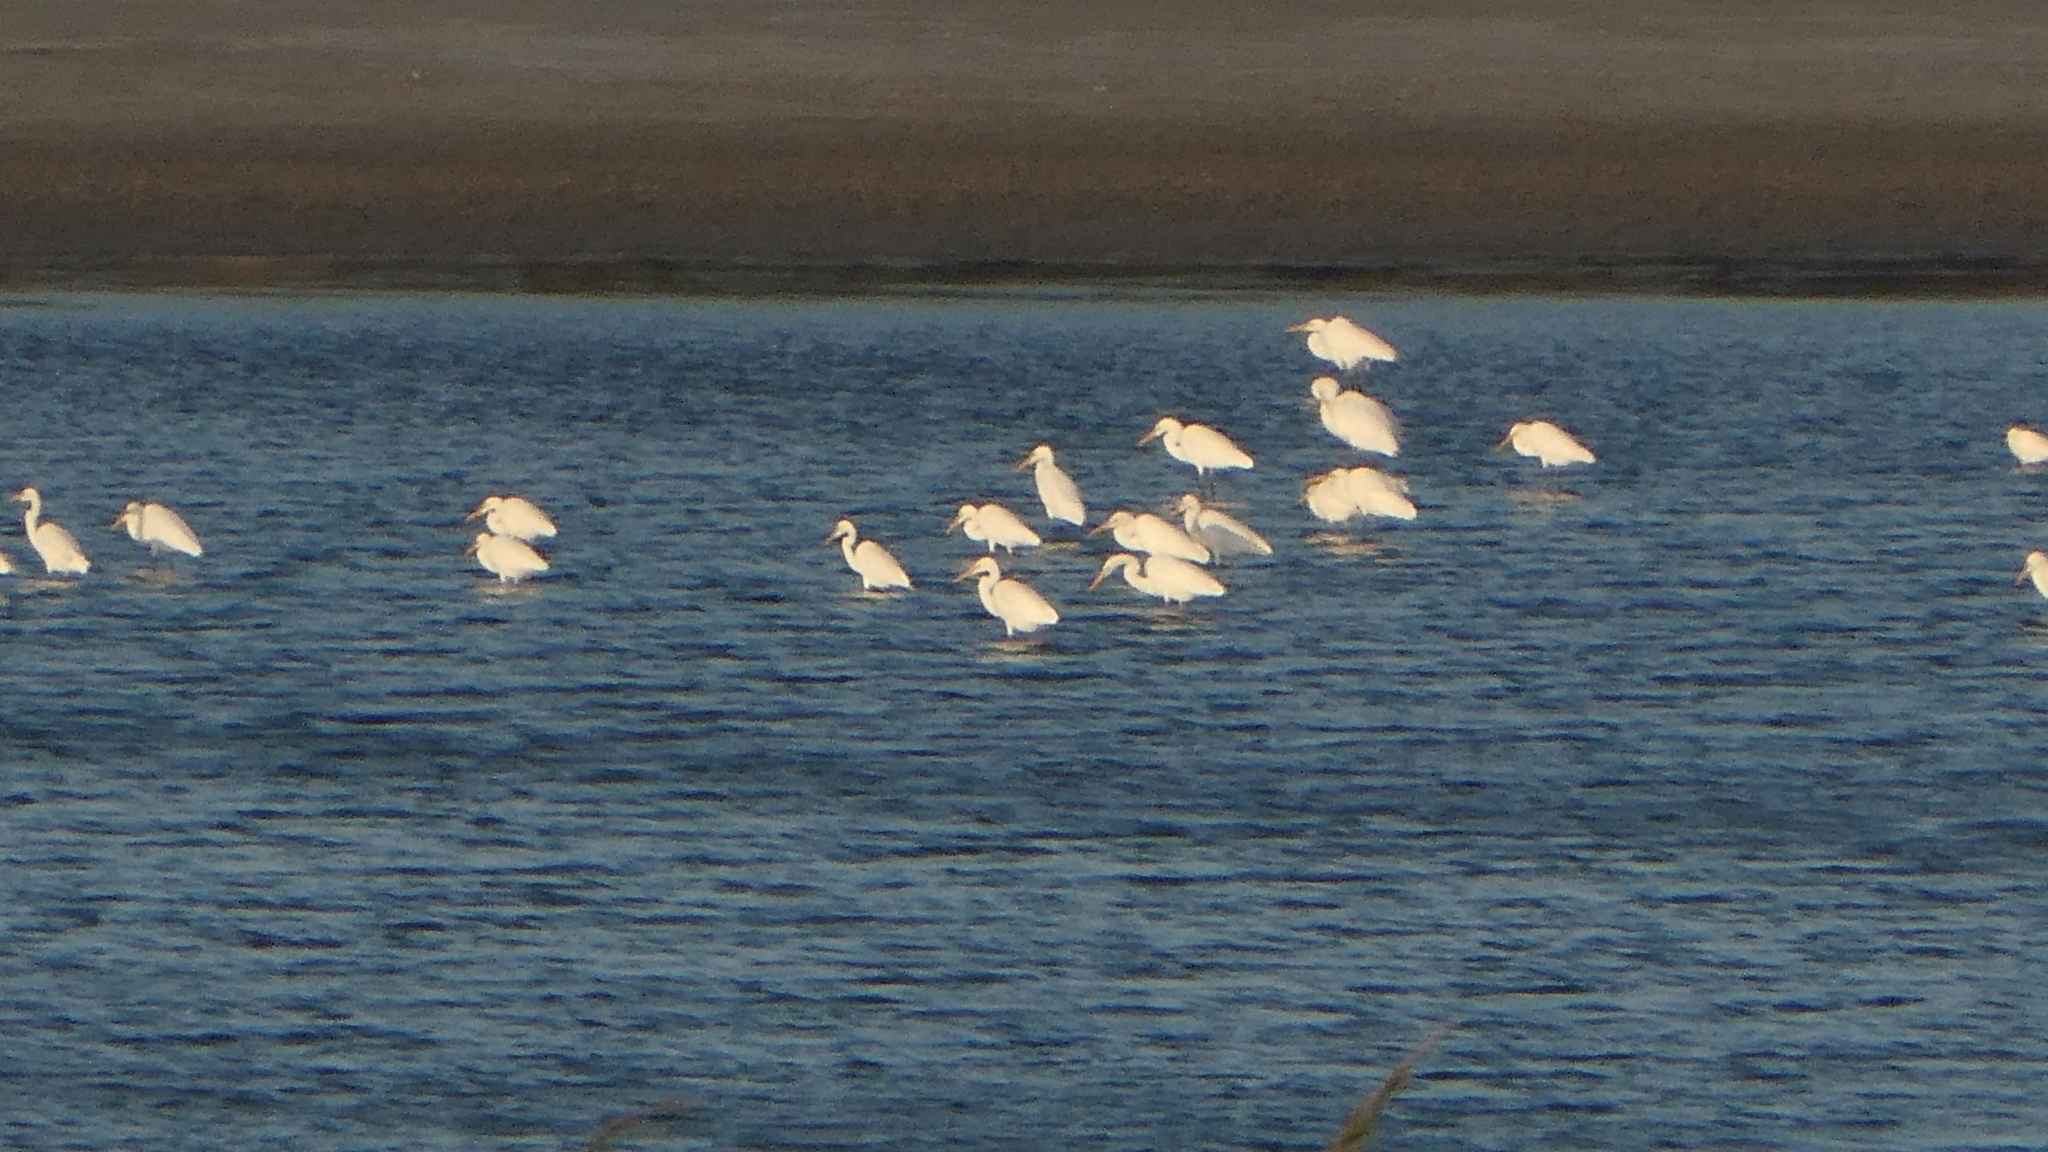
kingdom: Animalia
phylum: Chordata
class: Aves
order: Pelecaniformes
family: Ardeidae
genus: Ardea
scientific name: Ardea alba
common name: Great egret
